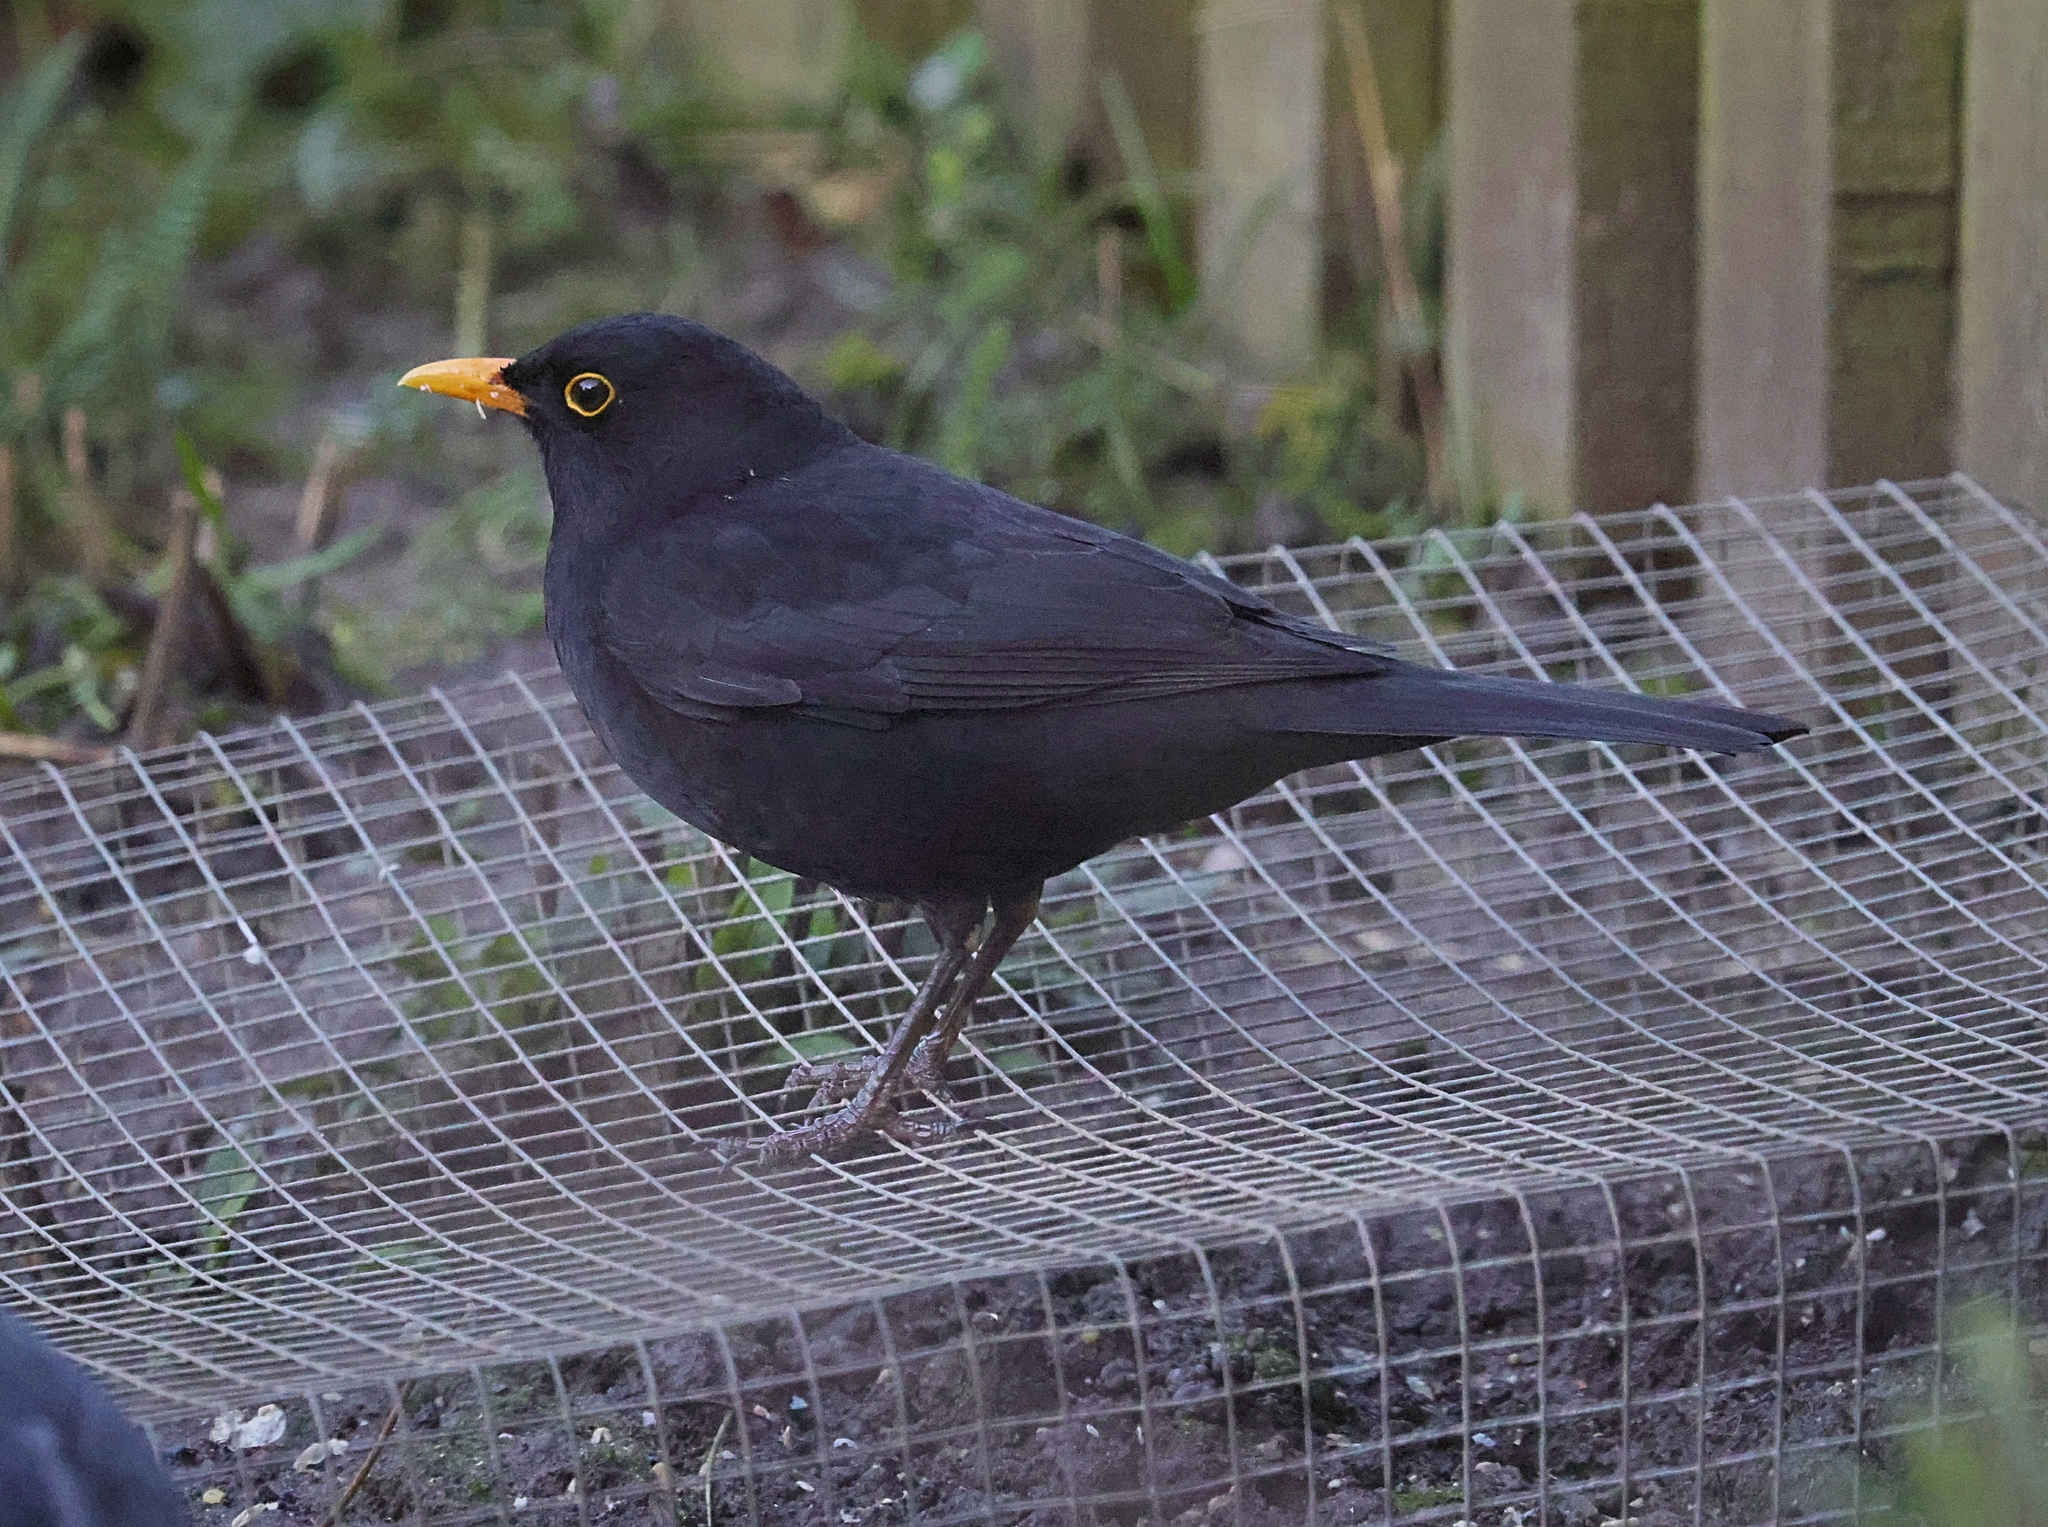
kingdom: Animalia
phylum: Chordata
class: Aves
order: Passeriformes
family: Turdidae
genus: Turdus
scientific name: Turdus merula
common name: Common blackbird
